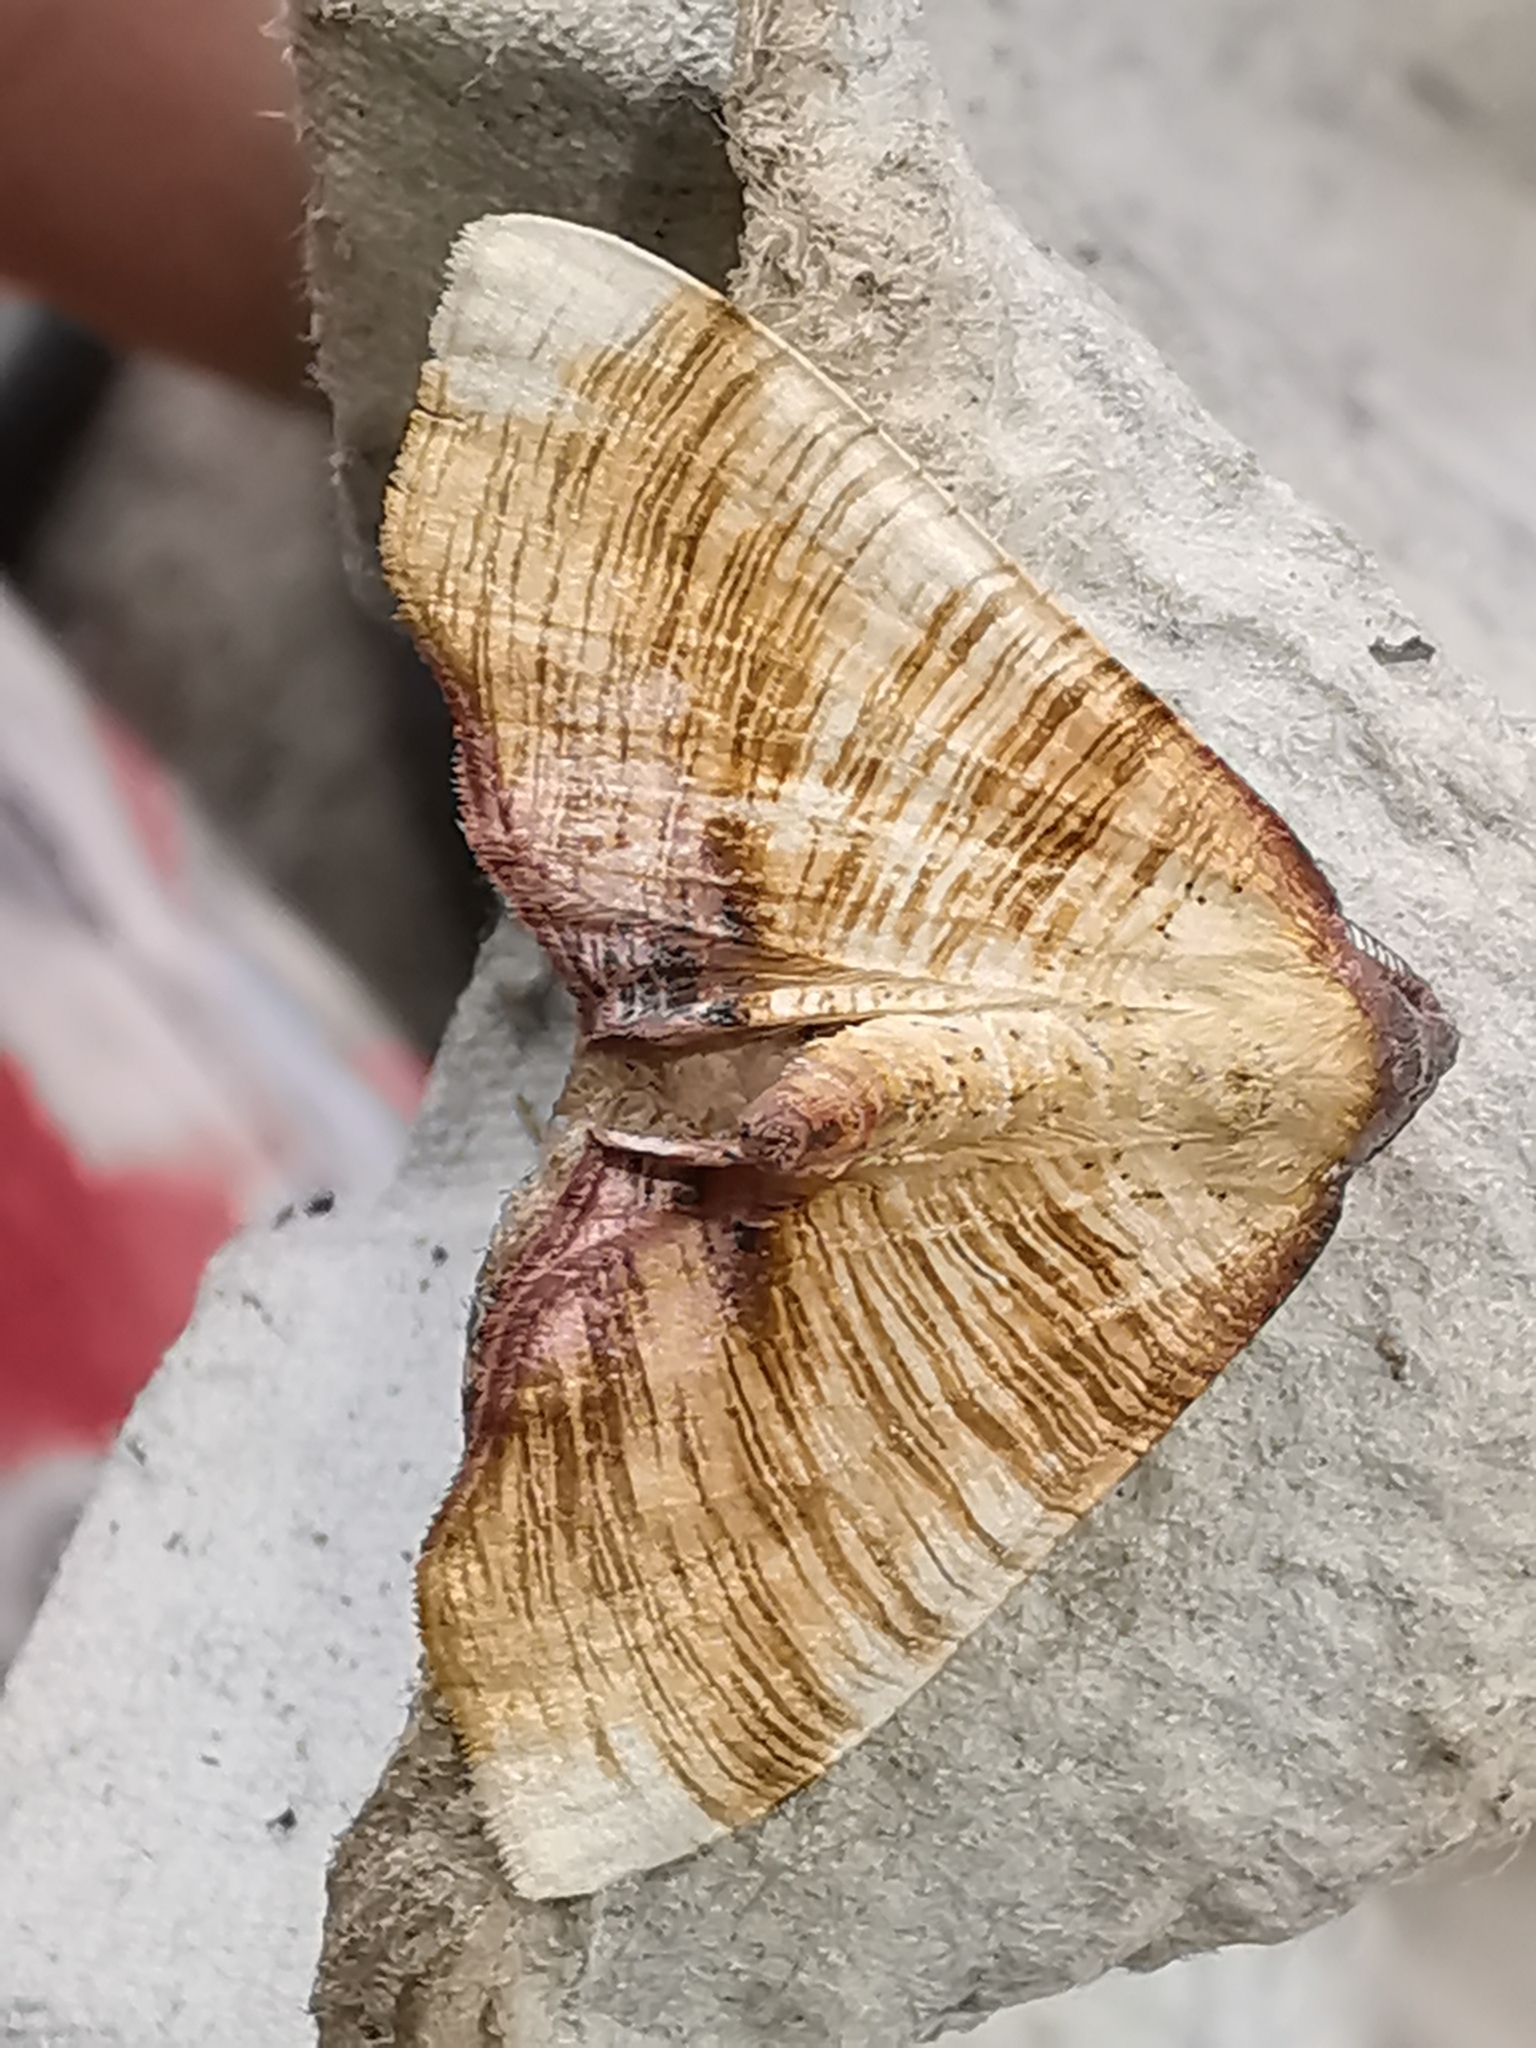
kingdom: Animalia
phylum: Arthropoda
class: Insecta
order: Lepidoptera
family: Geometridae
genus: Plagodis
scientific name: Plagodis dolabraria
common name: Scorched wing
